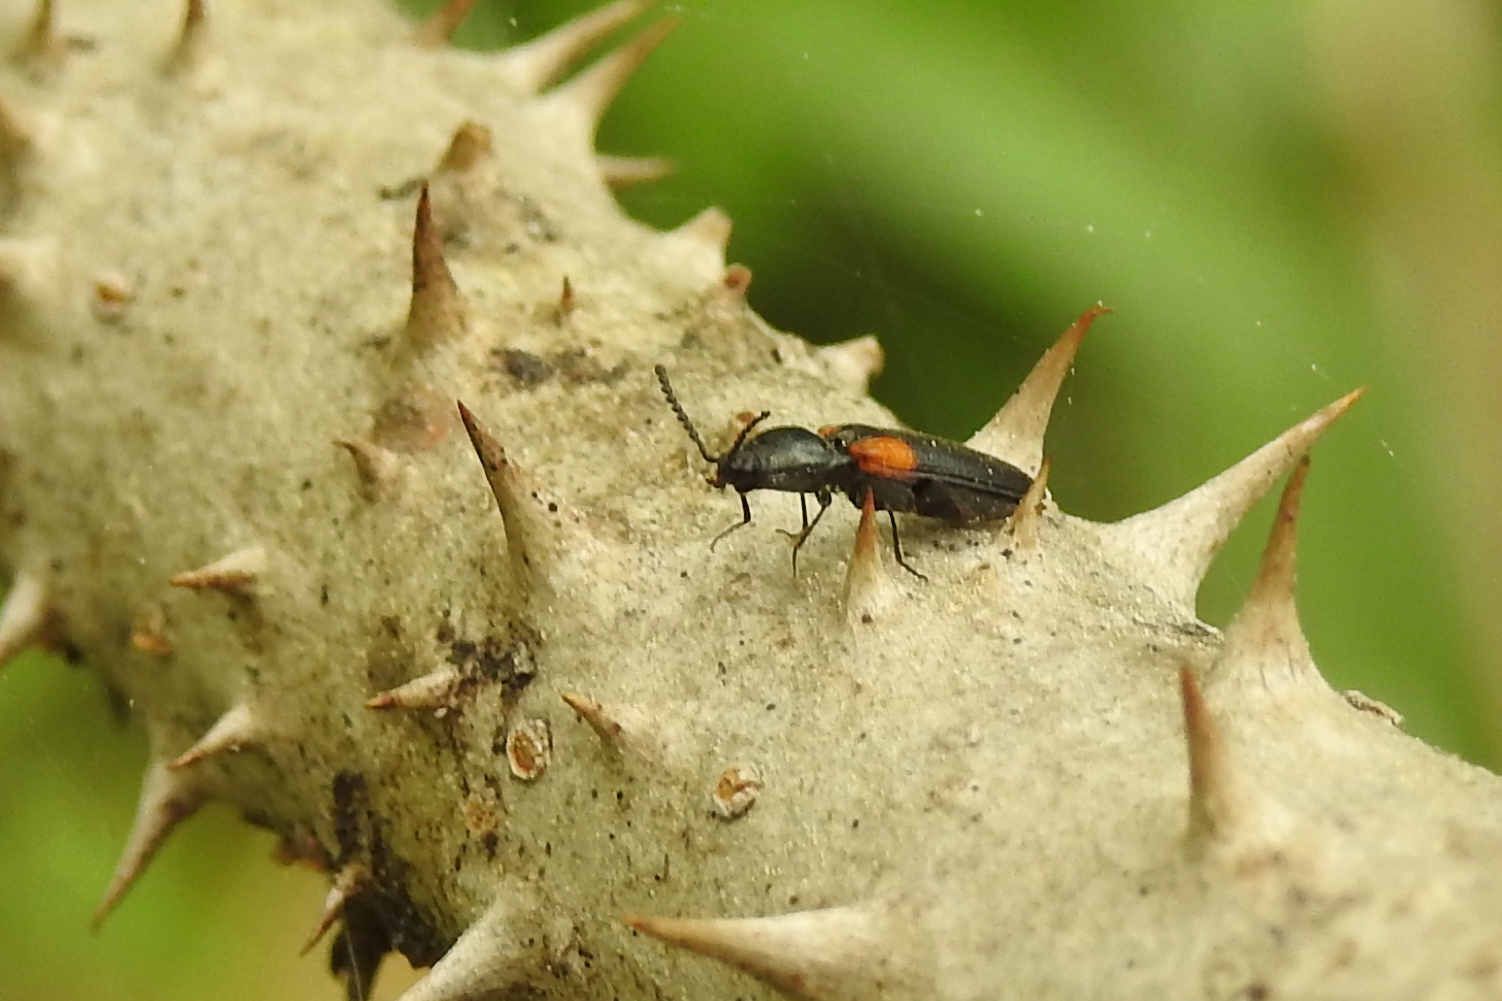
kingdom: Animalia
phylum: Arthropoda
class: Insecta
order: Coleoptera
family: Elateridae
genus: Ampedus
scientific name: Ampedus
